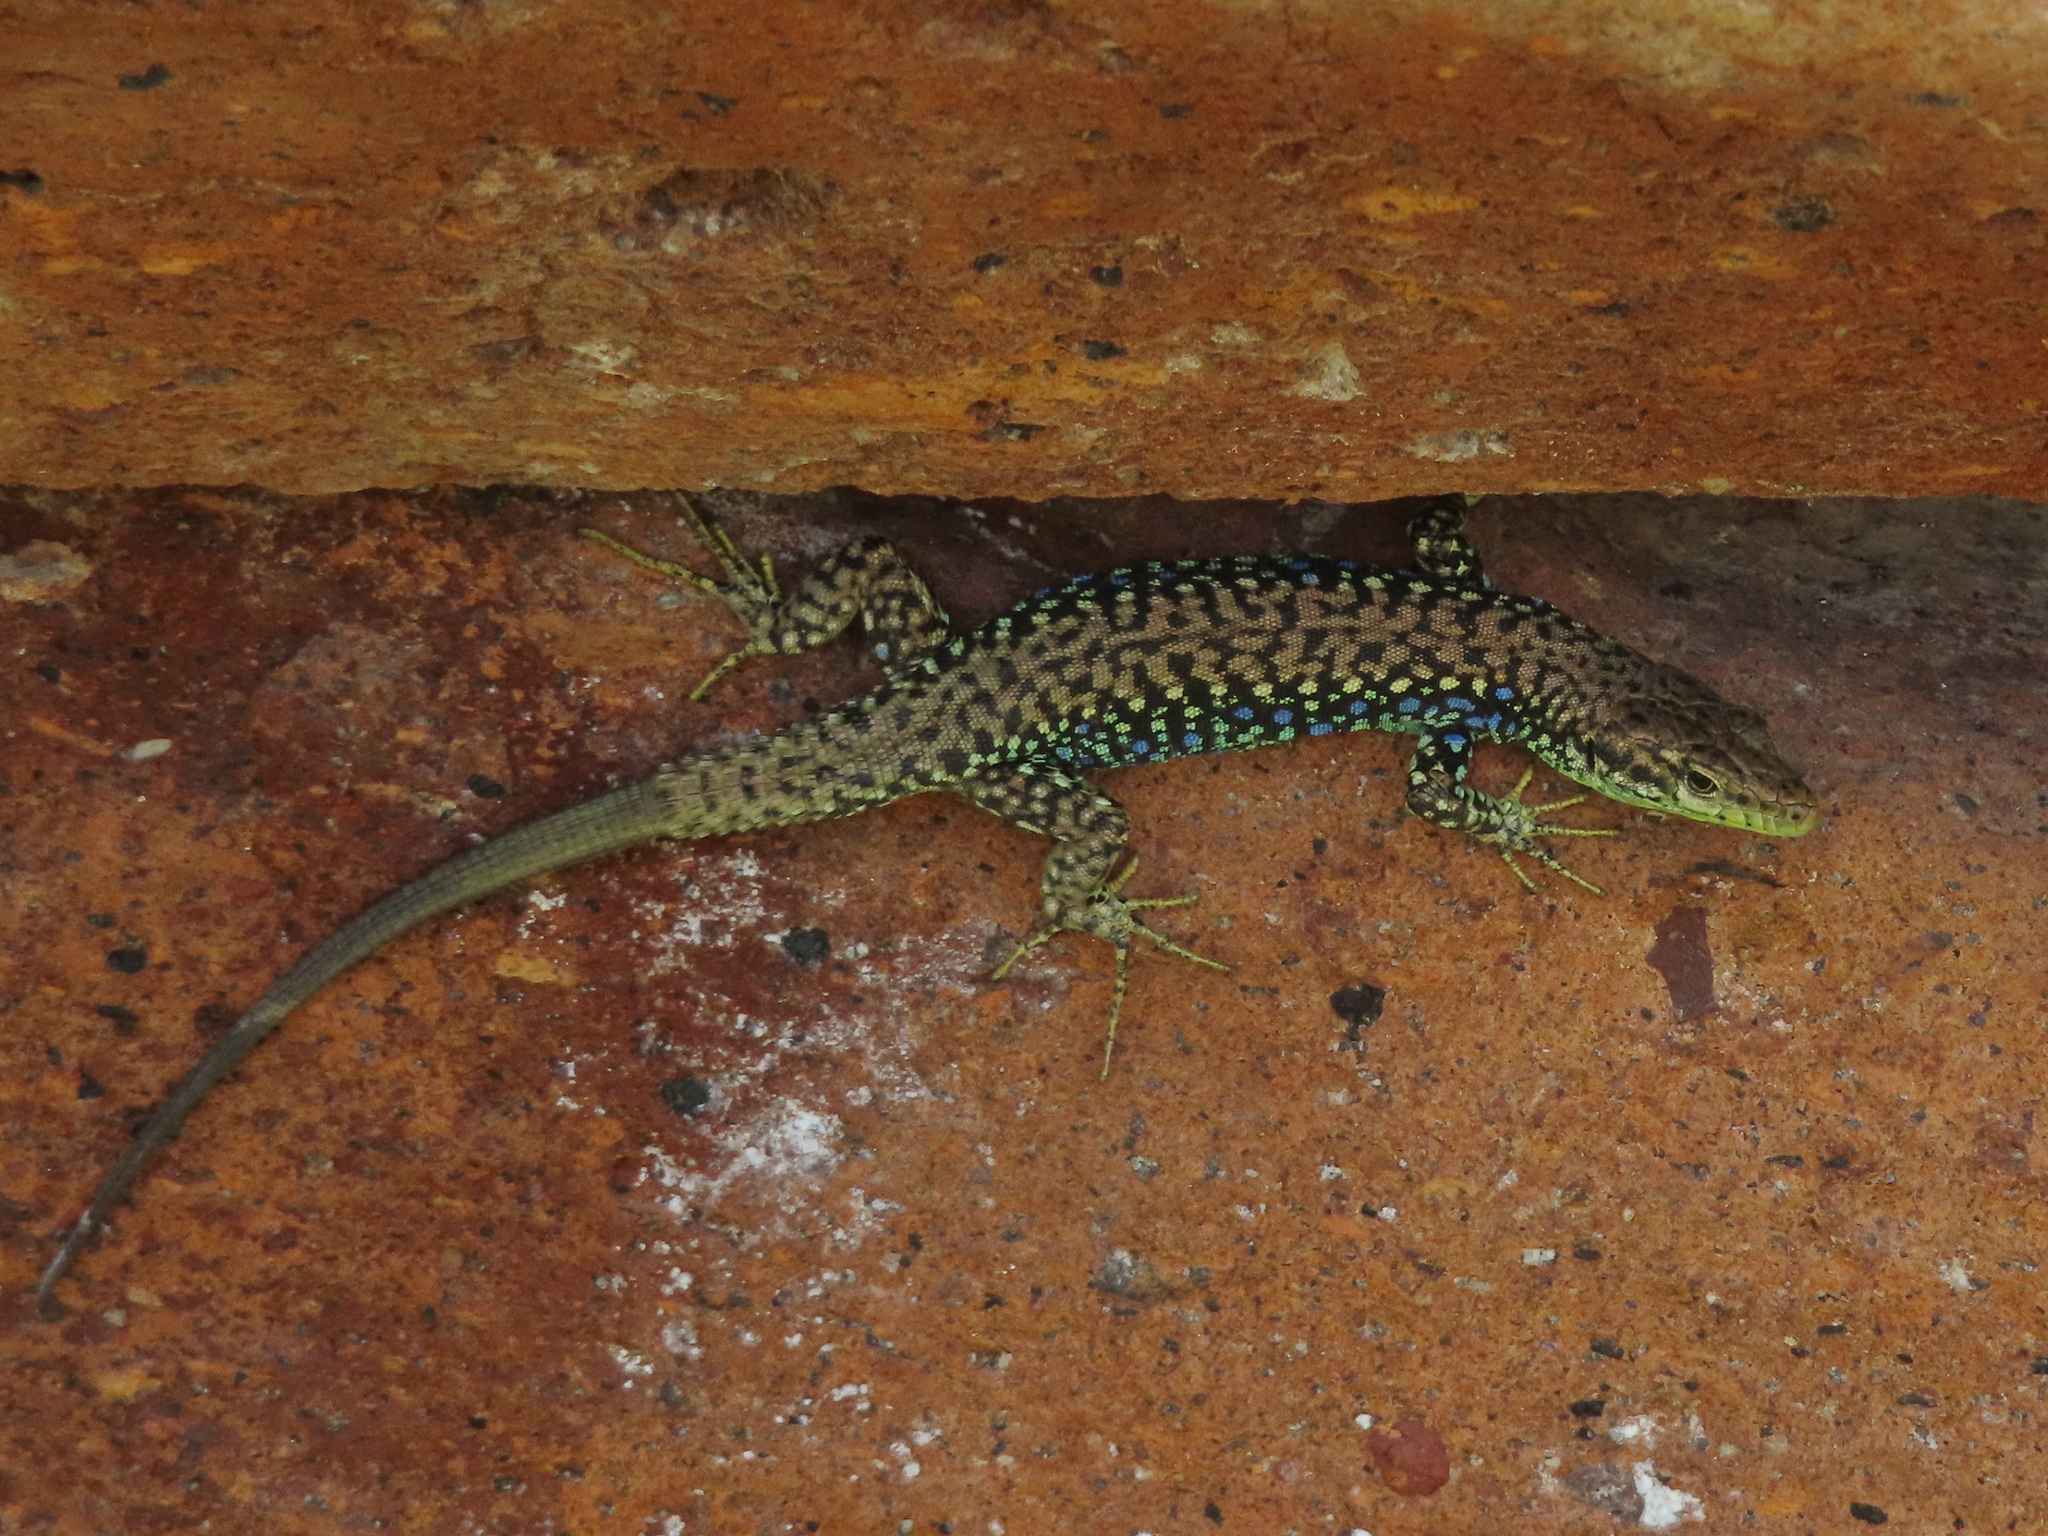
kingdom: Animalia
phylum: Chordata
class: Squamata
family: Lacertidae
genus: Darevskia
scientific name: Darevskia
